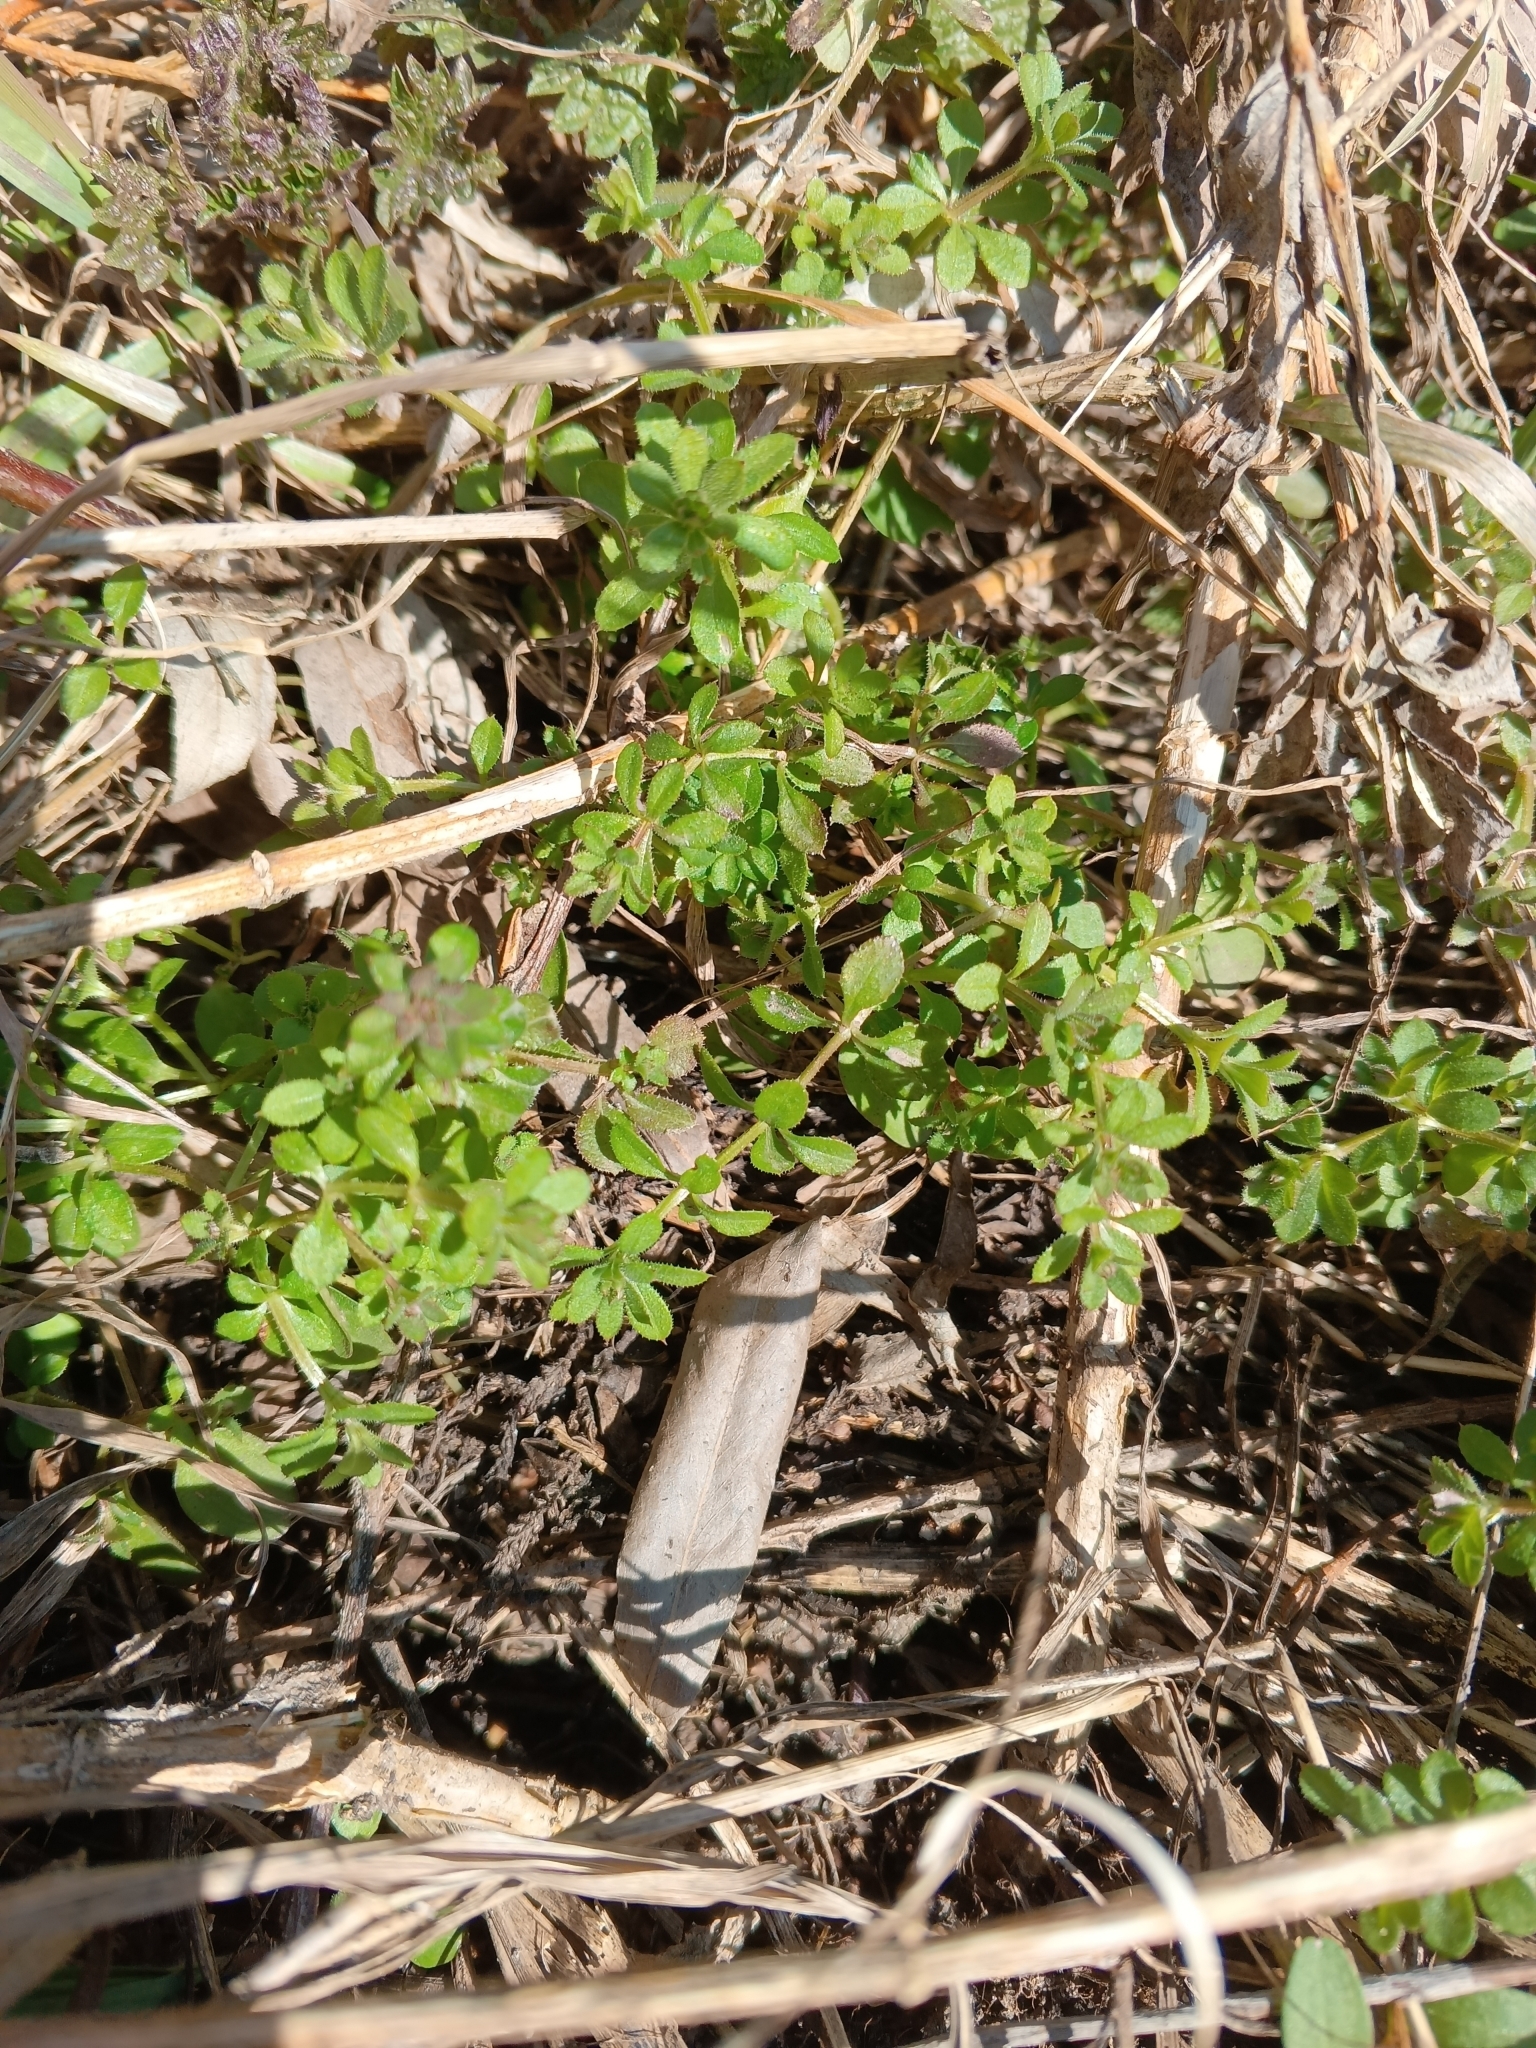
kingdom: Plantae
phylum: Tracheophyta
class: Magnoliopsida
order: Gentianales
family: Rubiaceae
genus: Galium
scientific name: Galium aparine
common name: Cleavers
